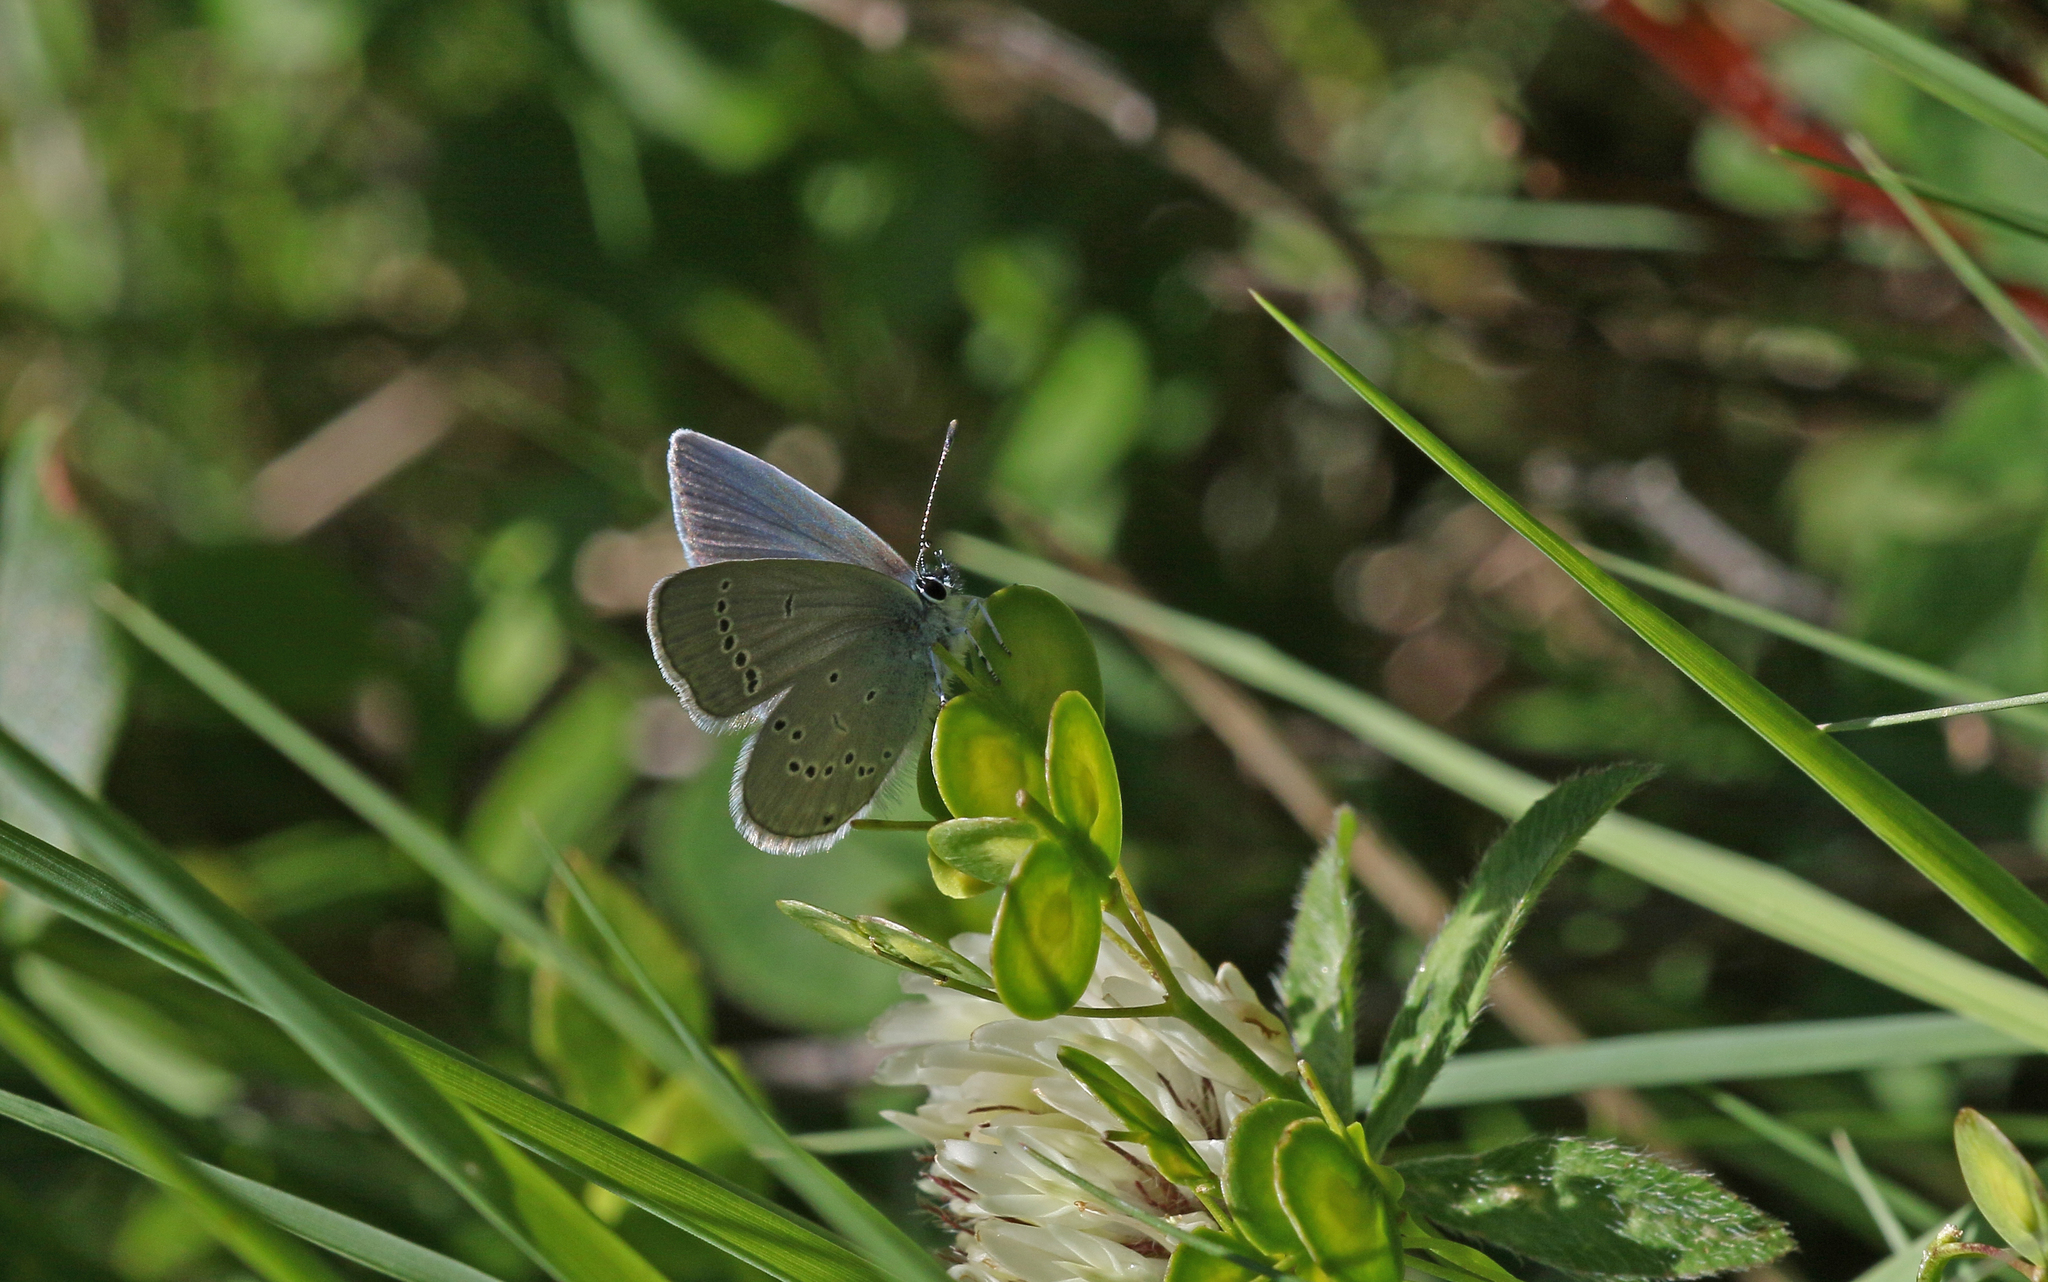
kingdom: Animalia
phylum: Arthropoda
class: Insecta
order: Lepidoptera
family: Lycaenidae
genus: Cupido
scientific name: Cupido minimus
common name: Small blue
